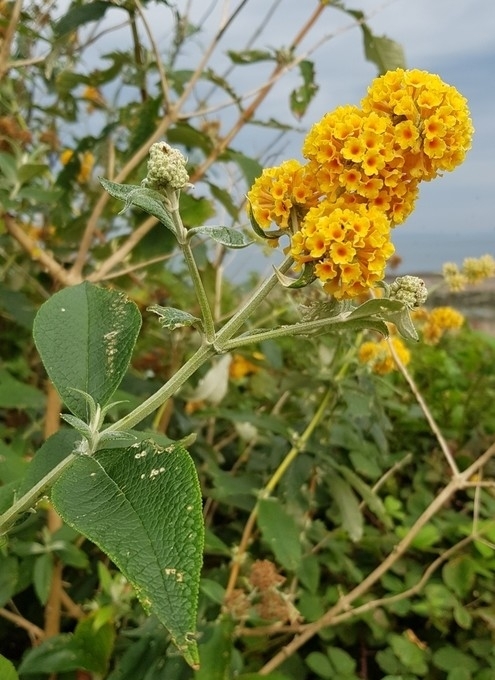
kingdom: Plantae
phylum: Tracheophyta
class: Magnoliopsida
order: Lamiales
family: Scrophulariaceae
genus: Buddleja
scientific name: Buddleja weyeriana
